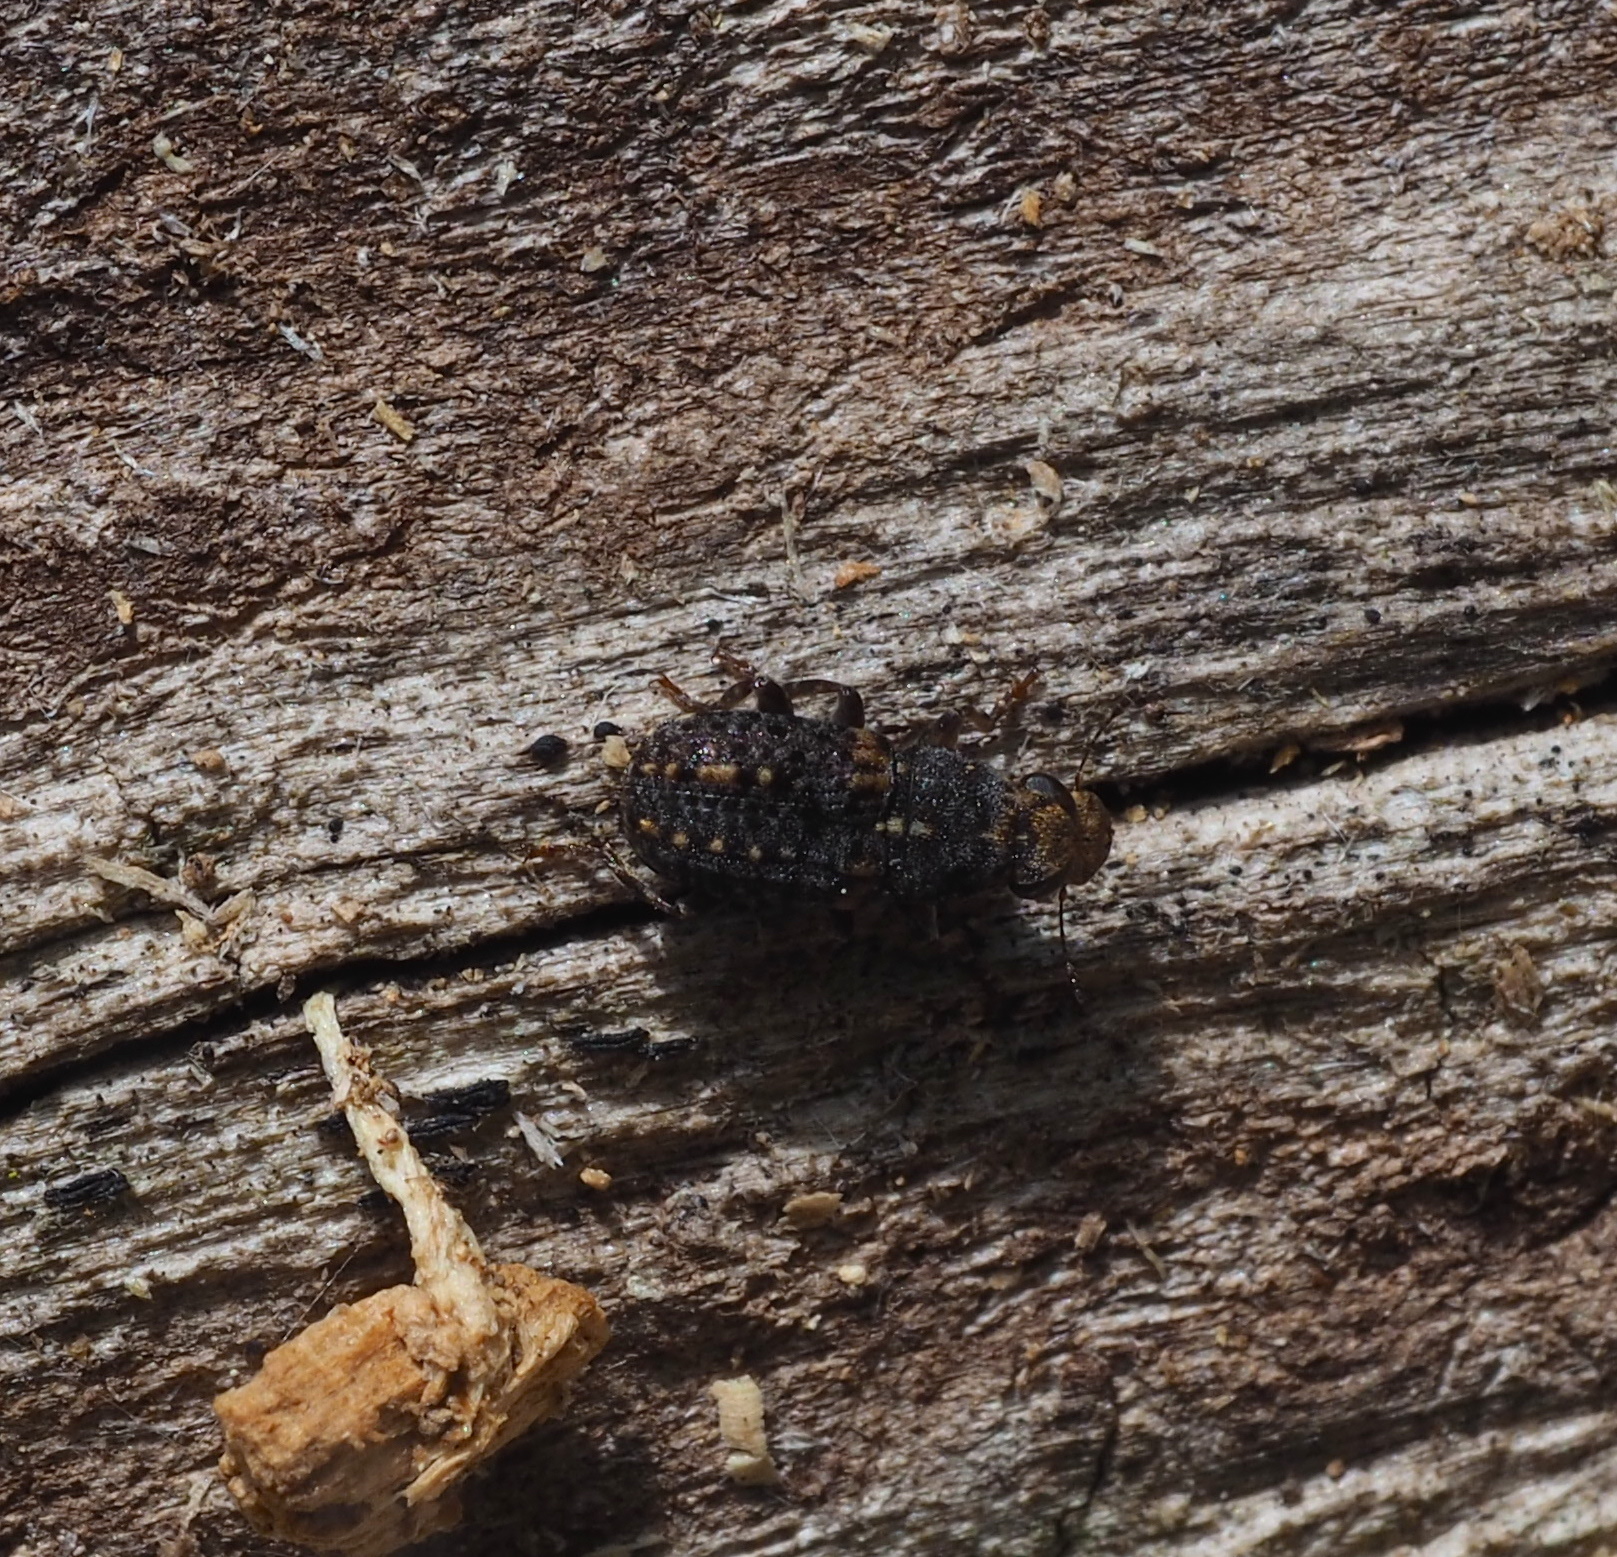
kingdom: Animalia
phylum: Arthropoda
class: Insecta
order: Coleoptera
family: Anthribidae
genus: Ulorhinus
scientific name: Ulorhinus bilineatus
